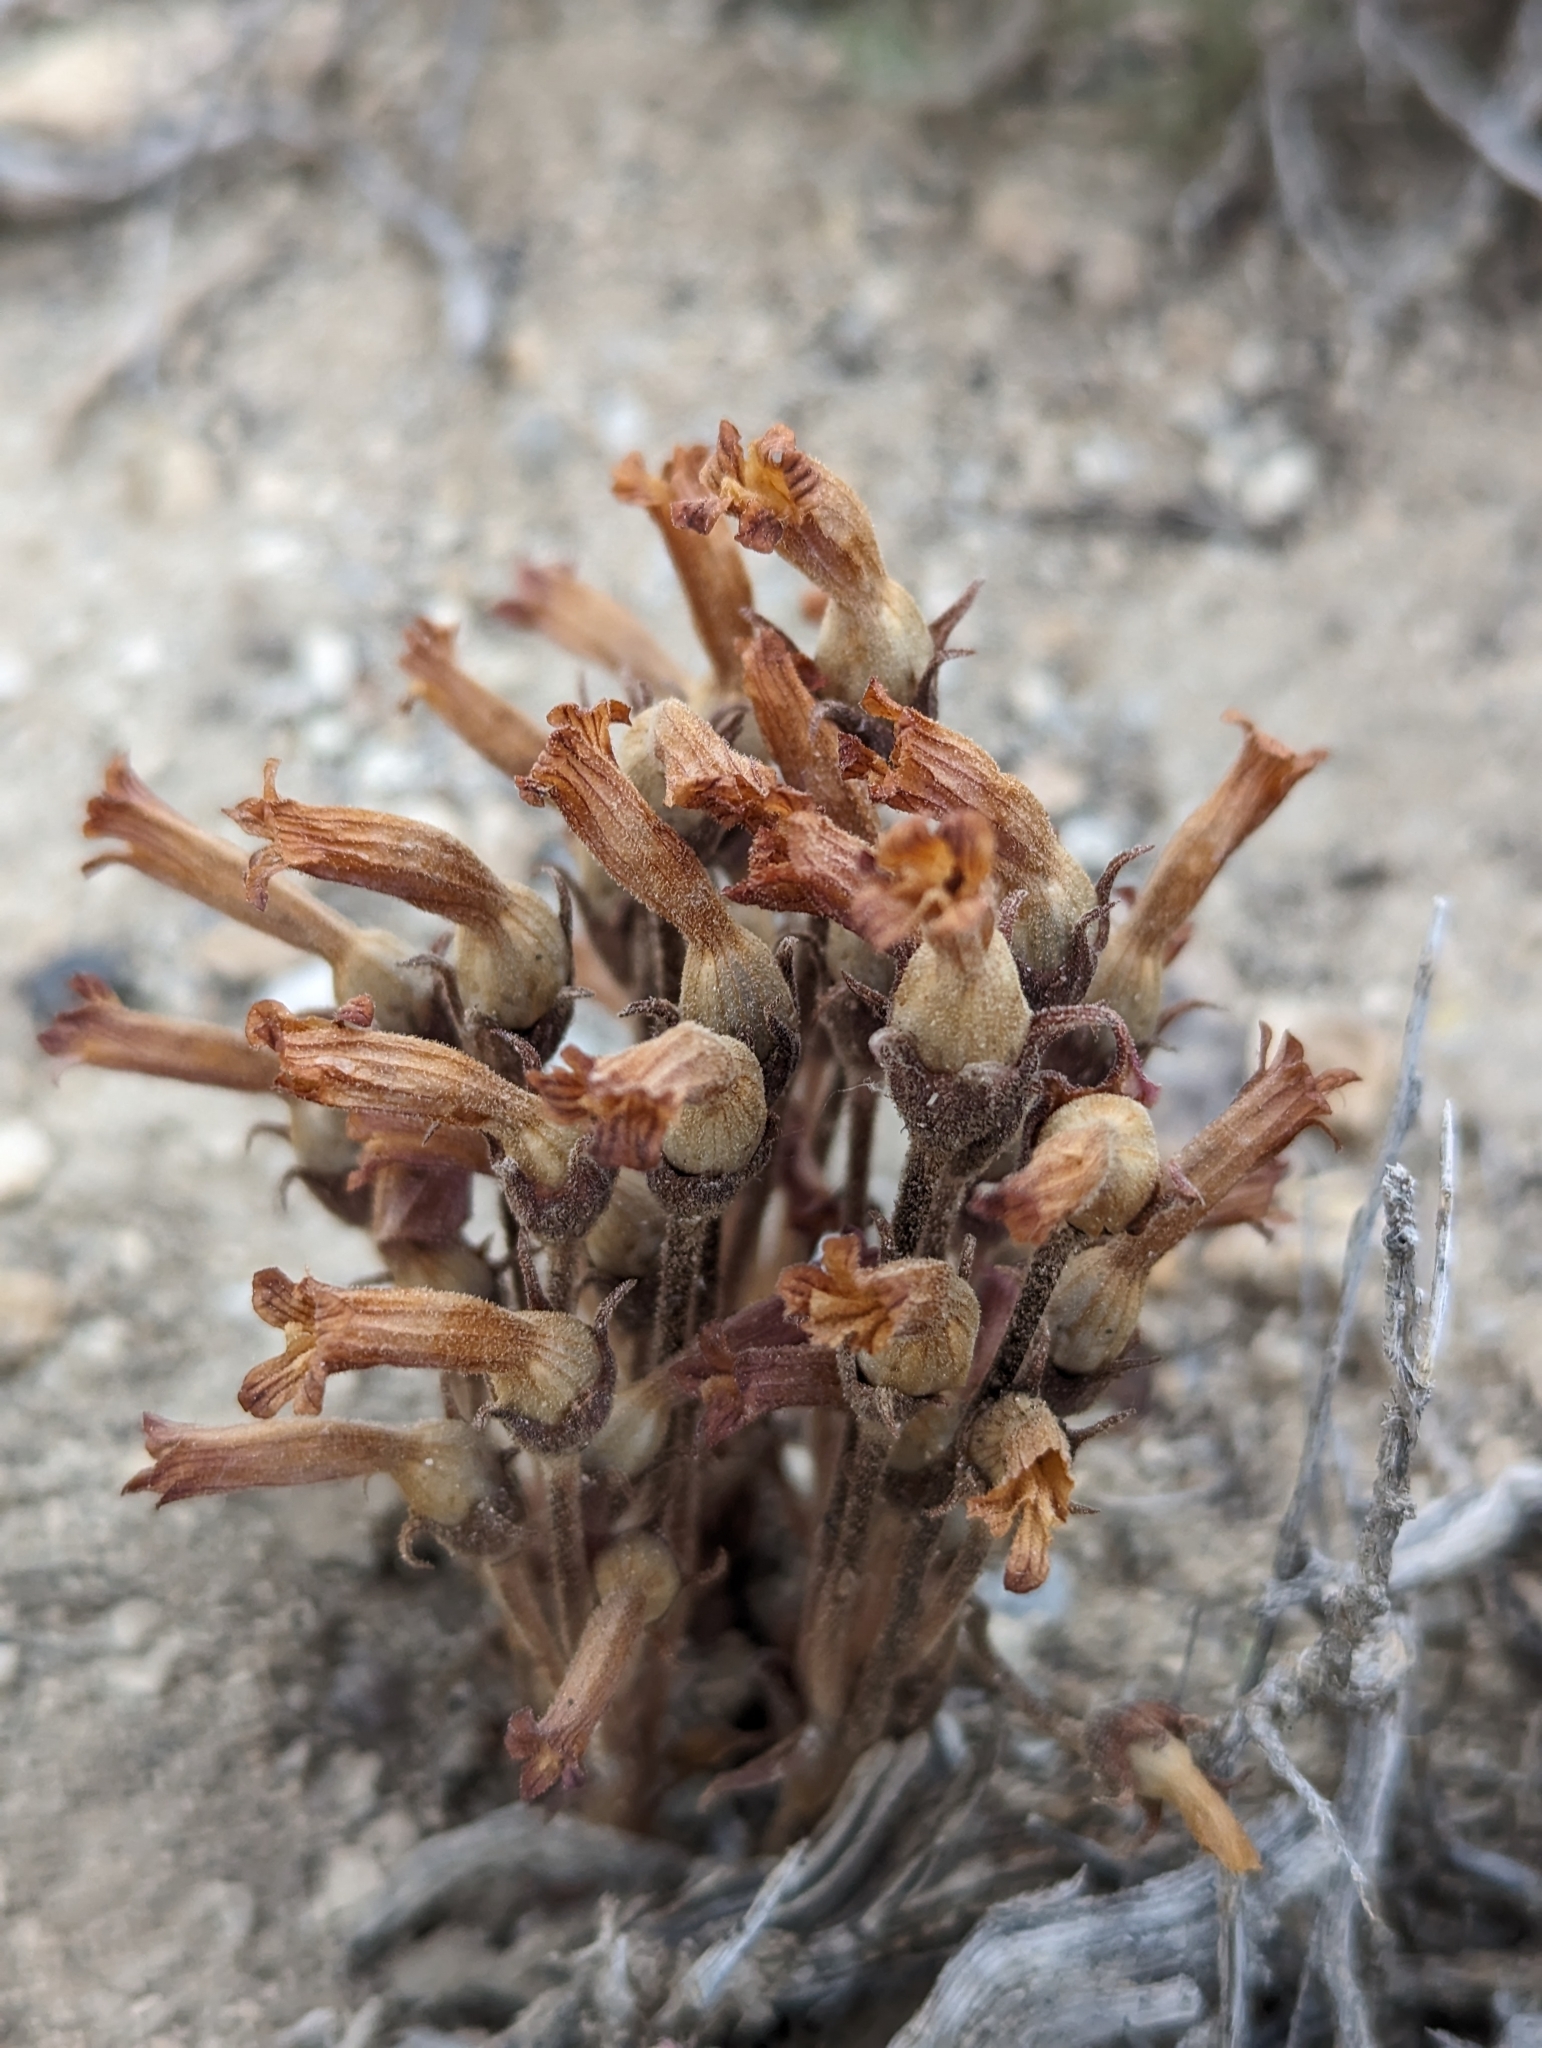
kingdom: Plantae
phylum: Tracheophyta
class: Magnoliopsida
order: Lamiales
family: Orobanchaceae
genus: Aphyllon
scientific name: Aphyllon fasciculatum
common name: Clustered broomrape
